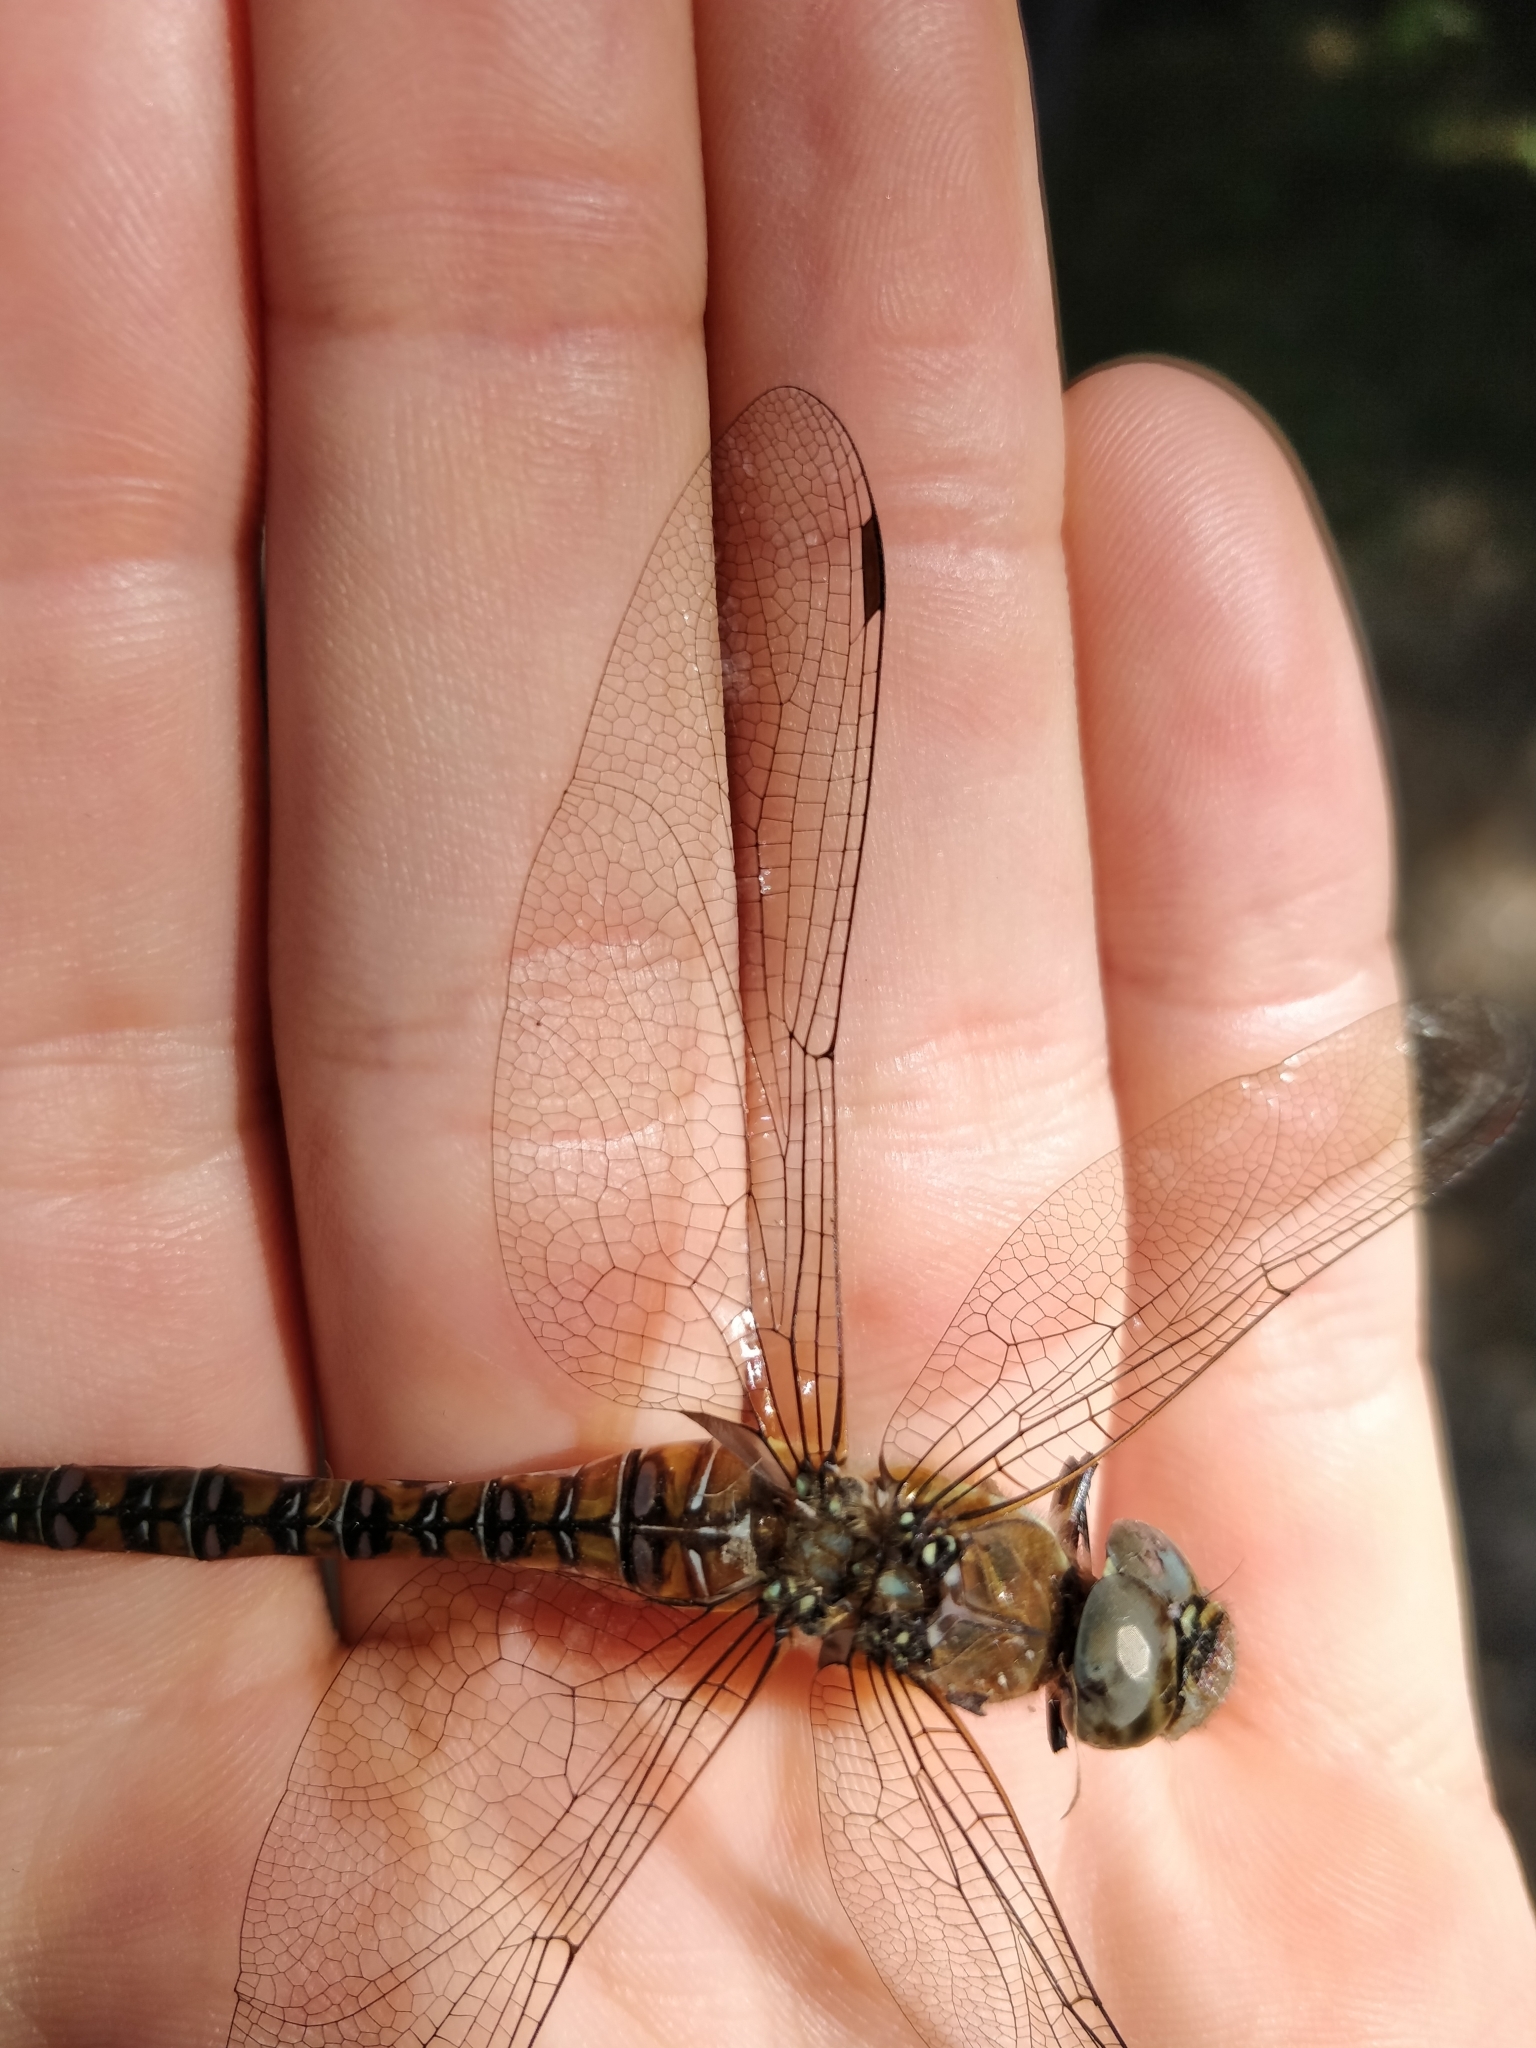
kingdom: Animalia
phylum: Arthropoda
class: Insecta
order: Odonata
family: Aeshnidae
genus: Aeshna
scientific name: Aeshna mixta
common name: Migrant hawker
